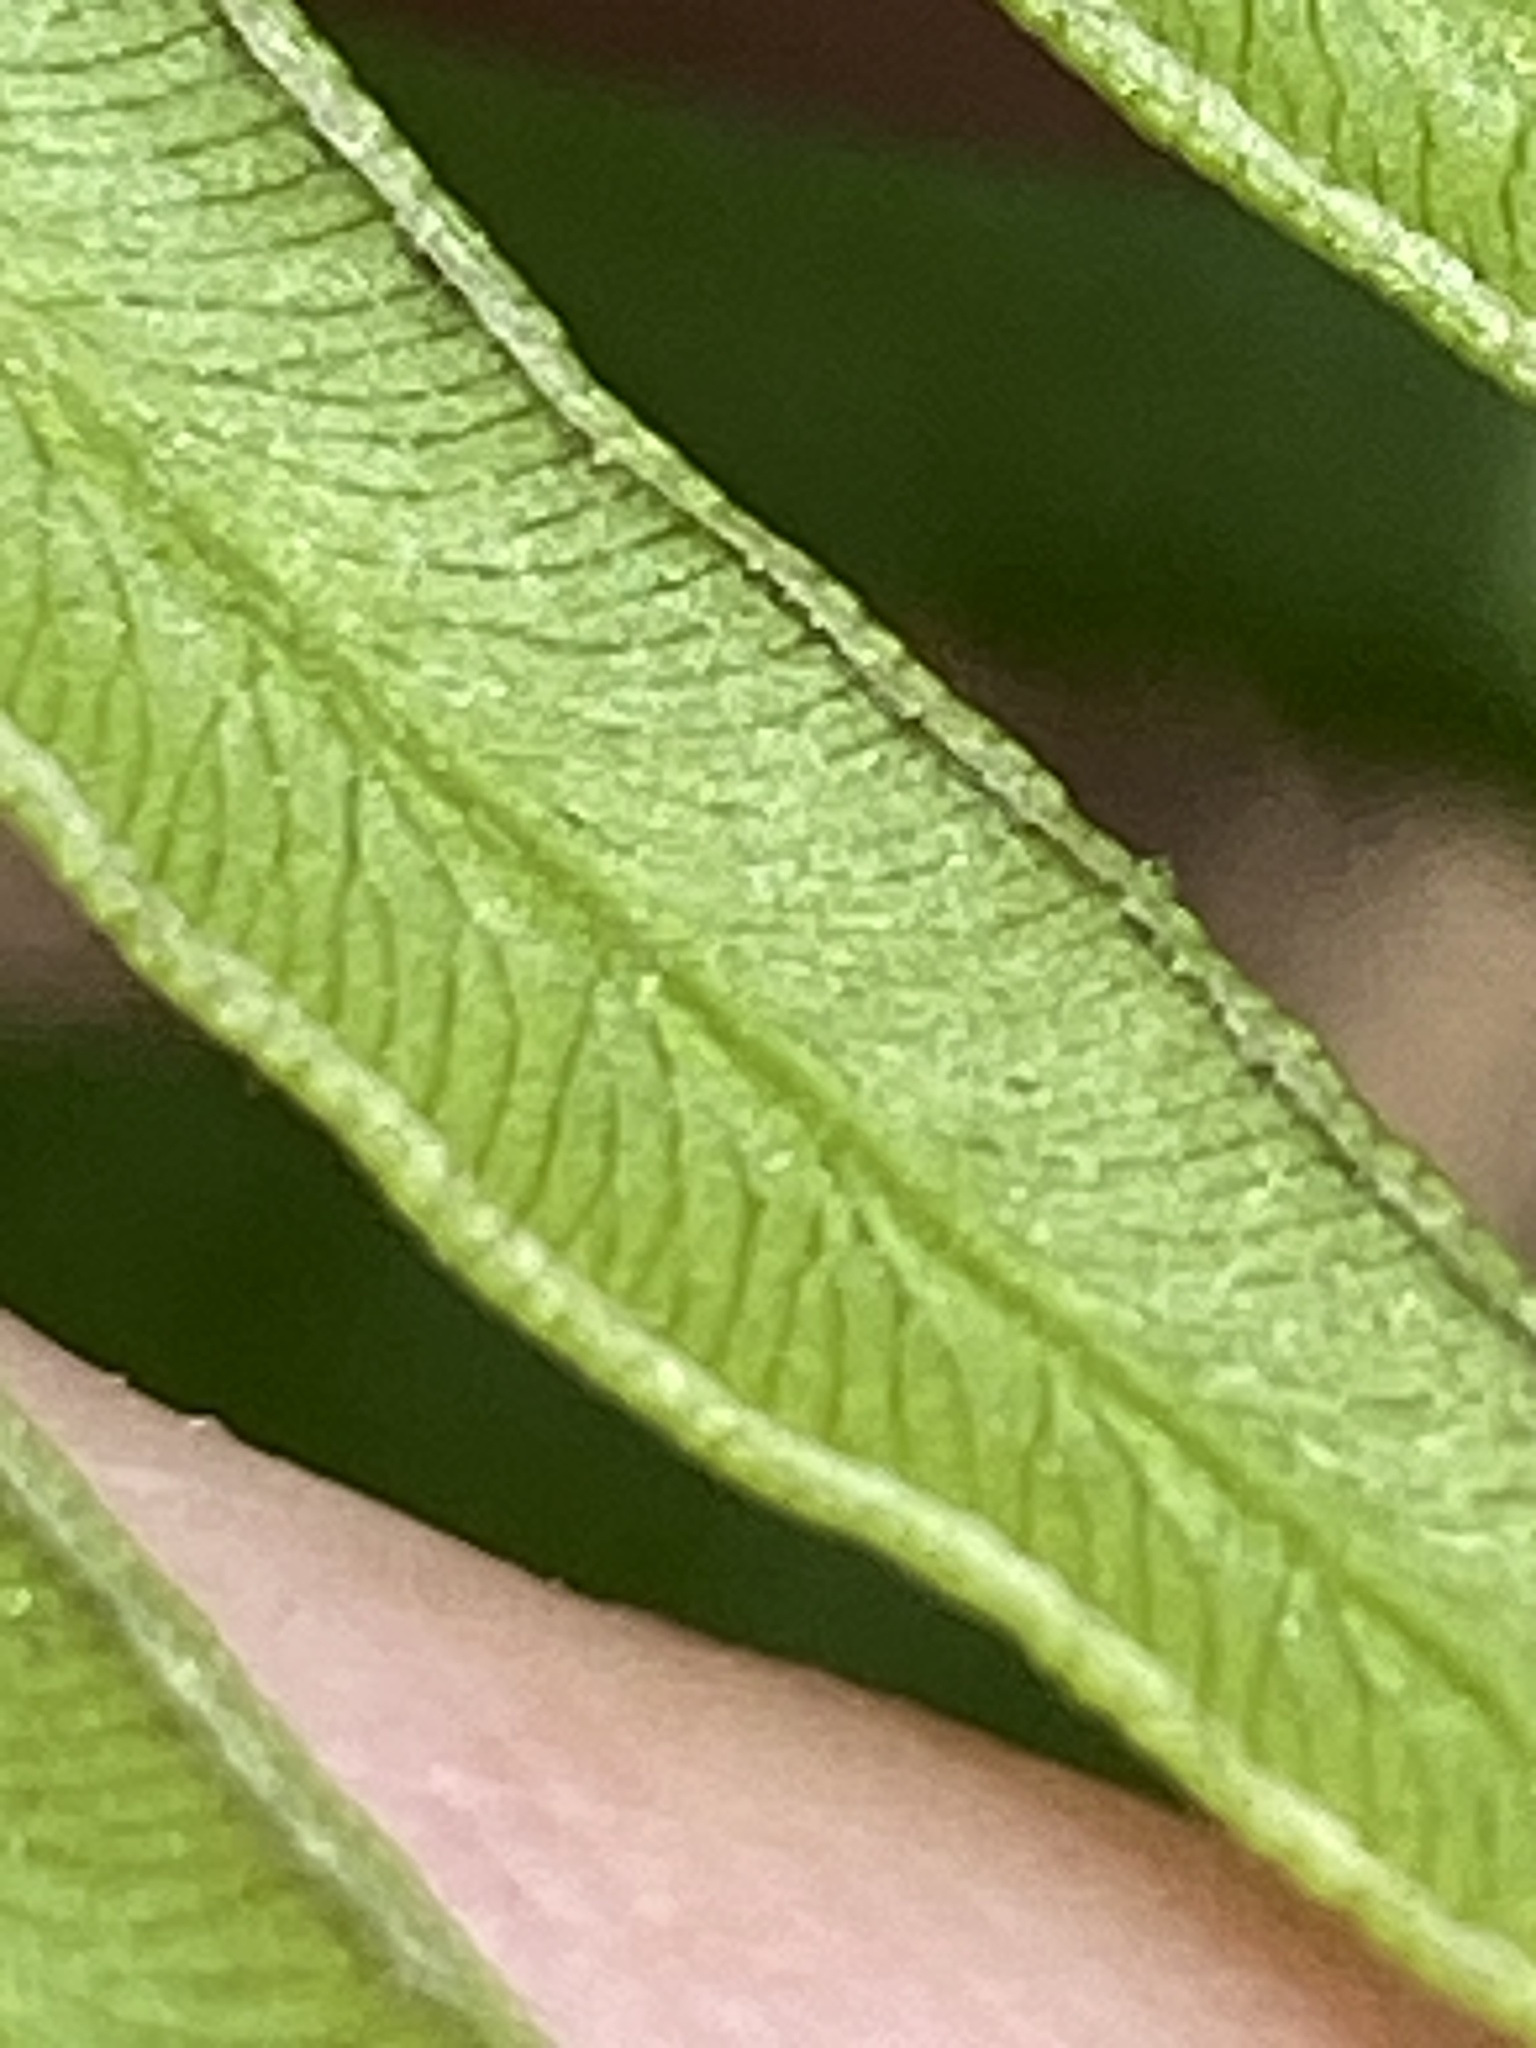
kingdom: Plantae
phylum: Tracheophyta
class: Polypodiopsida
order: Polypodiales
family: Dennstaedtiaceae
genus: Pteridium
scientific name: Pteridium
